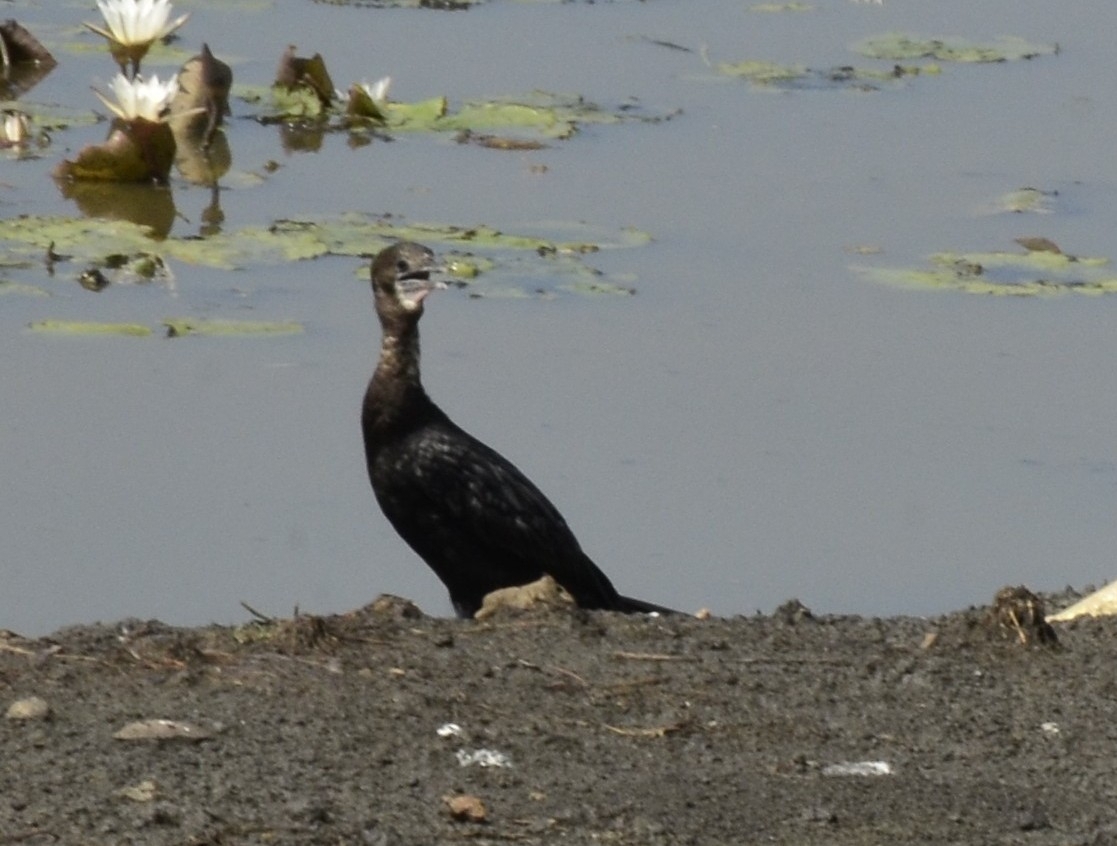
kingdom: Animalia
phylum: Chordata
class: Aves
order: Suliformes
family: Phalacrocoracidae
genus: Microcarbo
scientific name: Microcarbo niger
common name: Little cormorant
